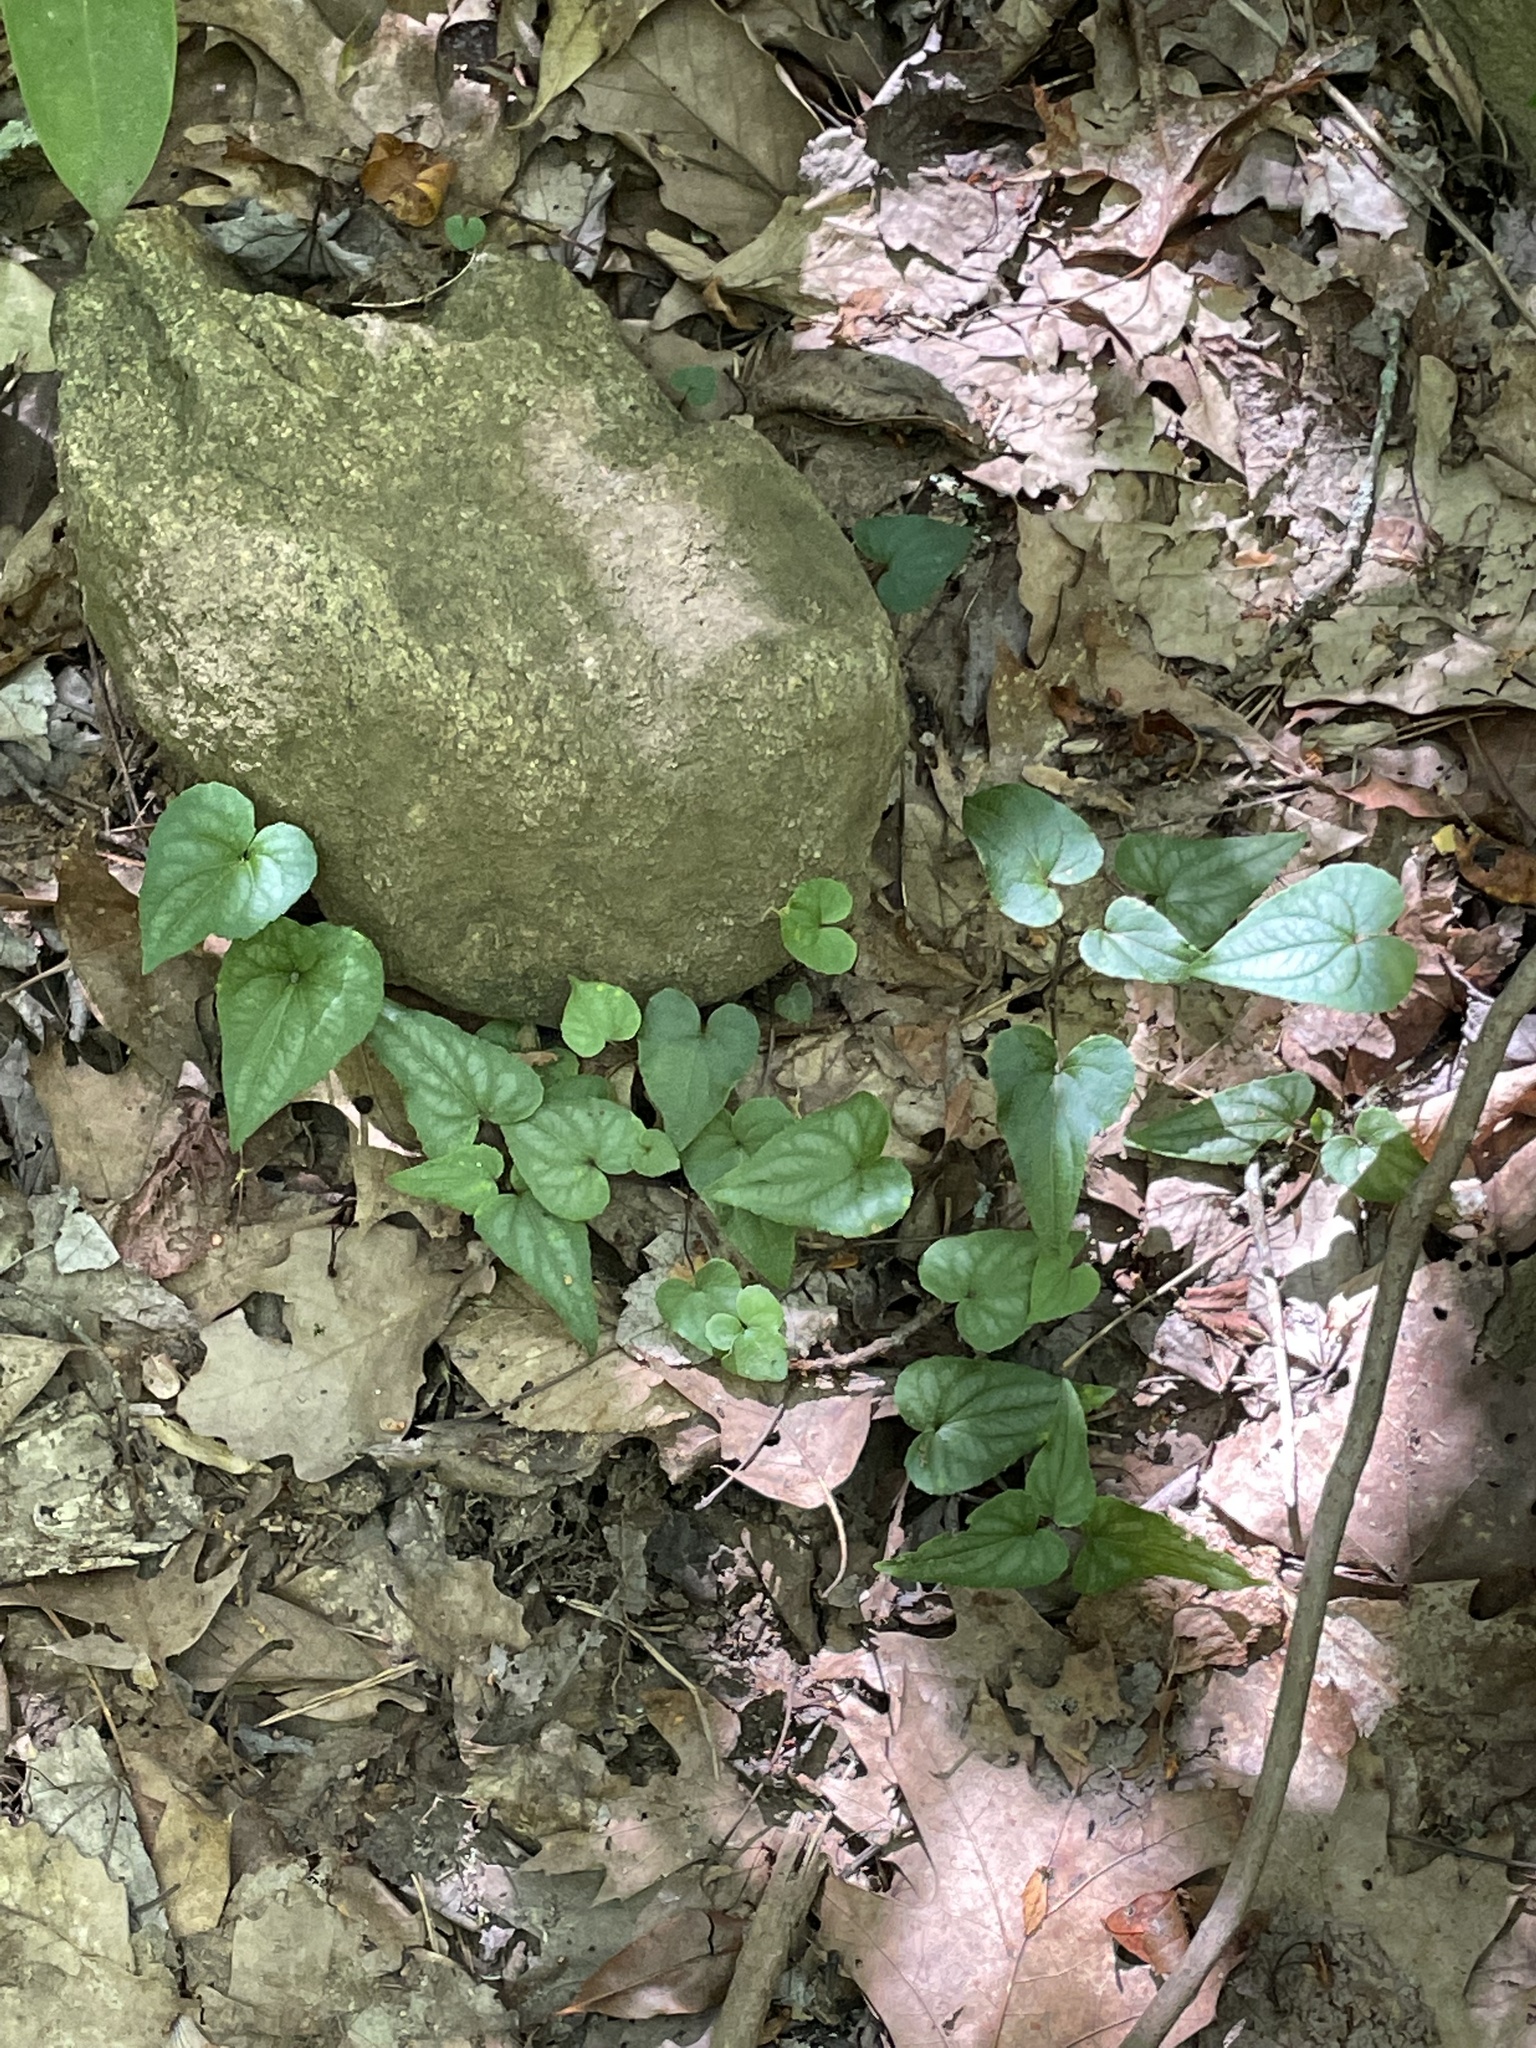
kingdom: Plantae
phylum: Tracheophyta
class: Magnoliopsida
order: Malpighiales
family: Violaceae
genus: Viola
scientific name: Viola hastata
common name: Spear-leaf violet
